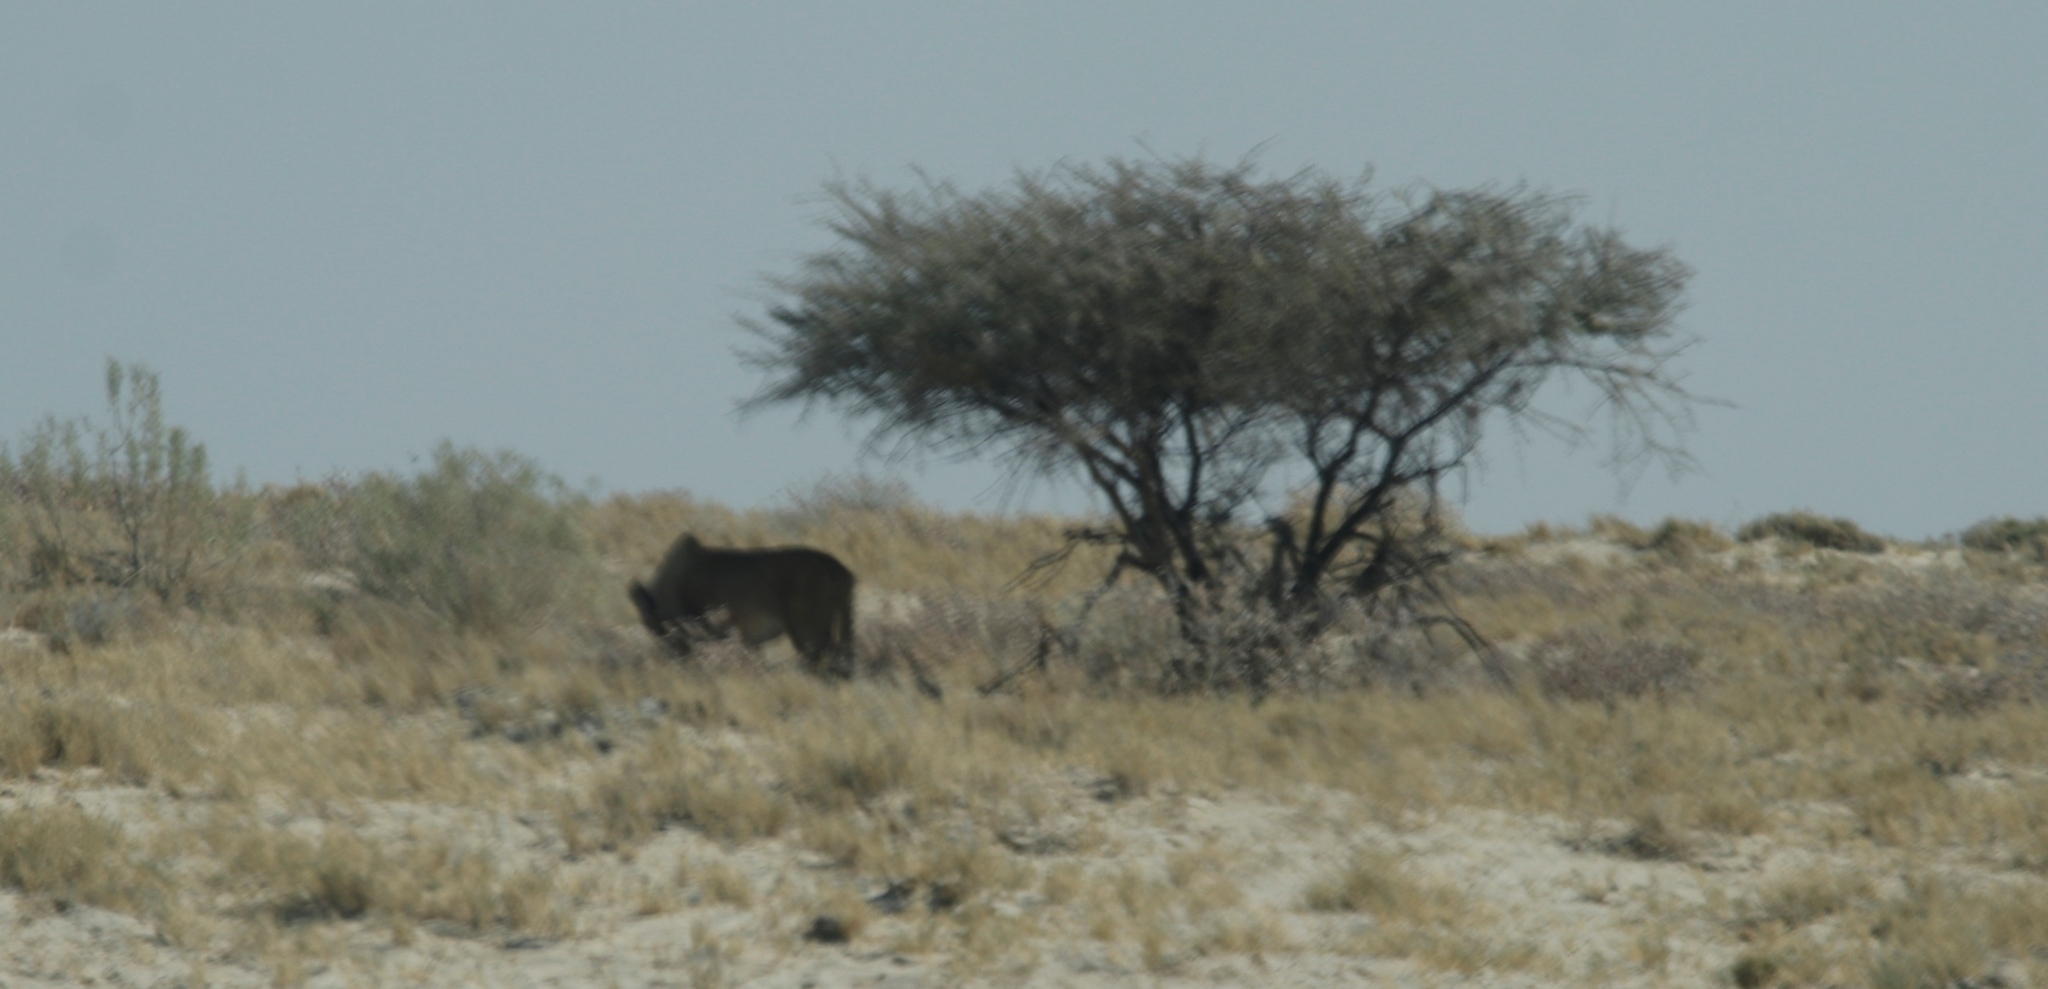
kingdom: Animalia
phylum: Chordata
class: Mammalia
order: Carnivora
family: Felidae
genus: Panthera
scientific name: Panthera leo
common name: Lion
